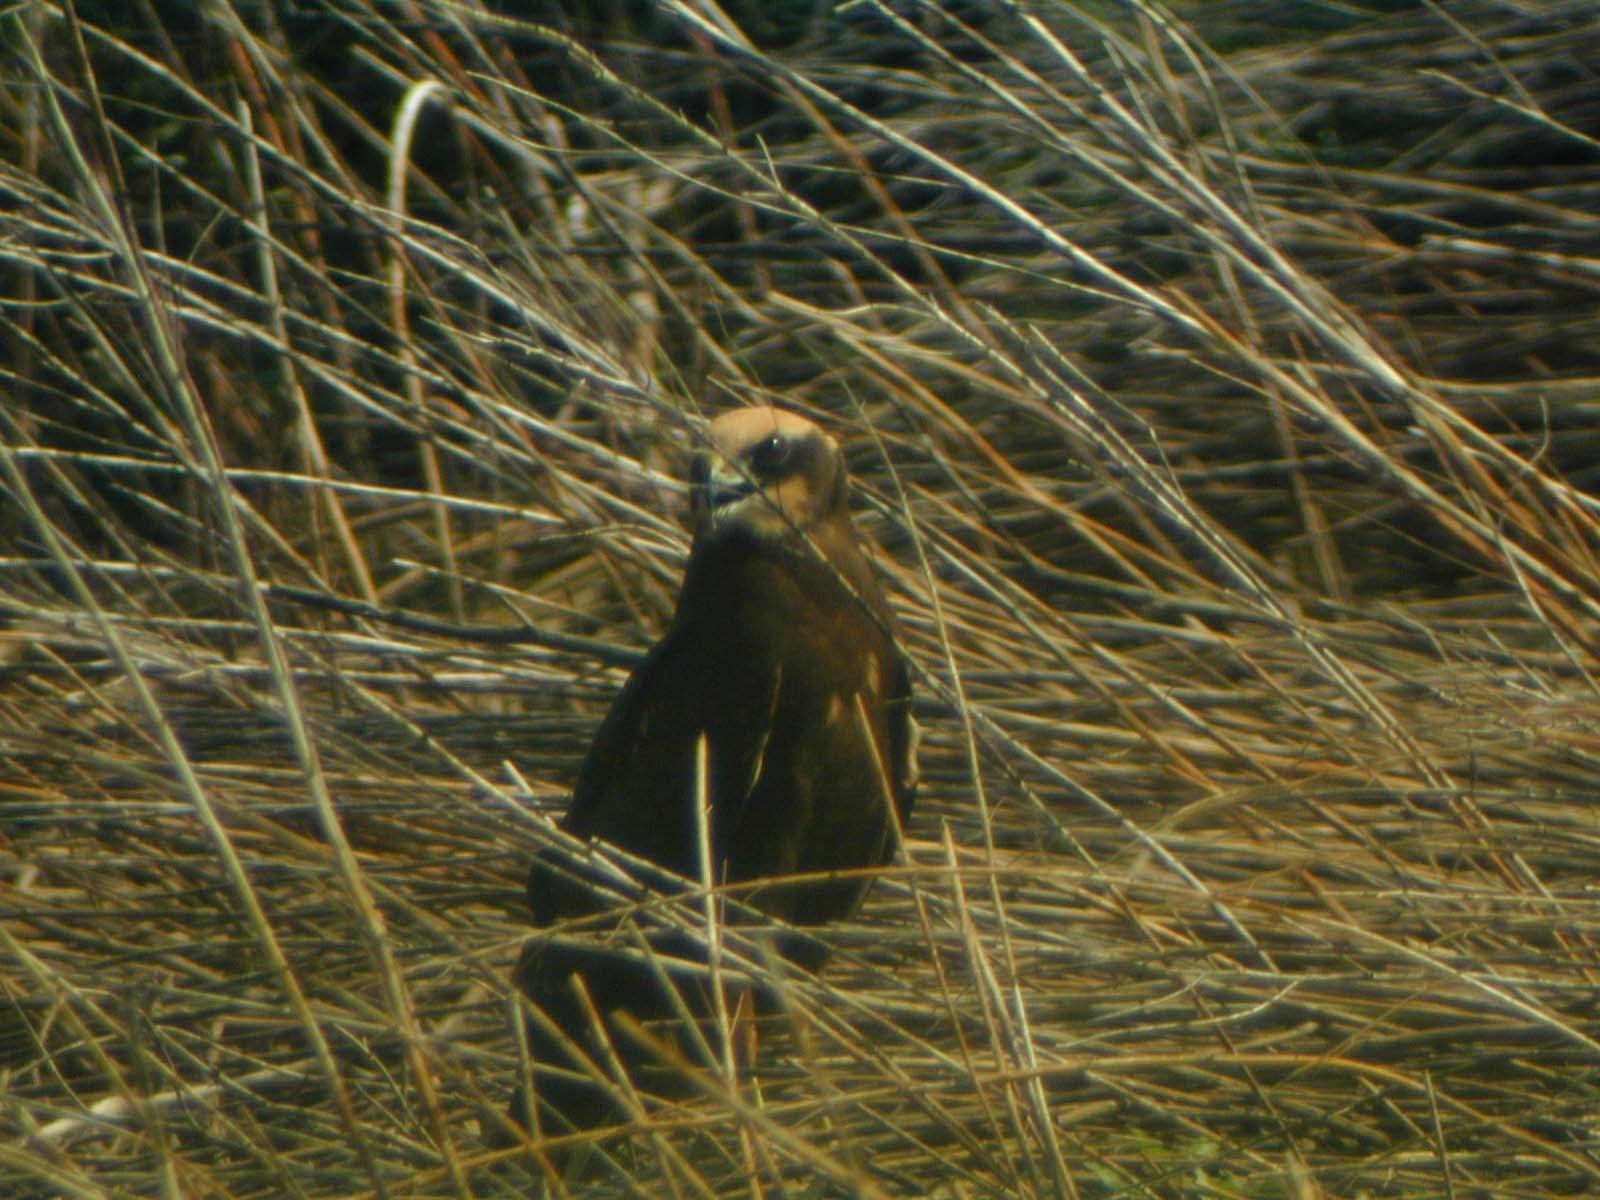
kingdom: Animalia
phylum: Chordata
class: Aves
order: Accipitriformes
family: Accipitridae
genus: Circus
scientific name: Circus aeruginosus
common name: Western marsh harrier
